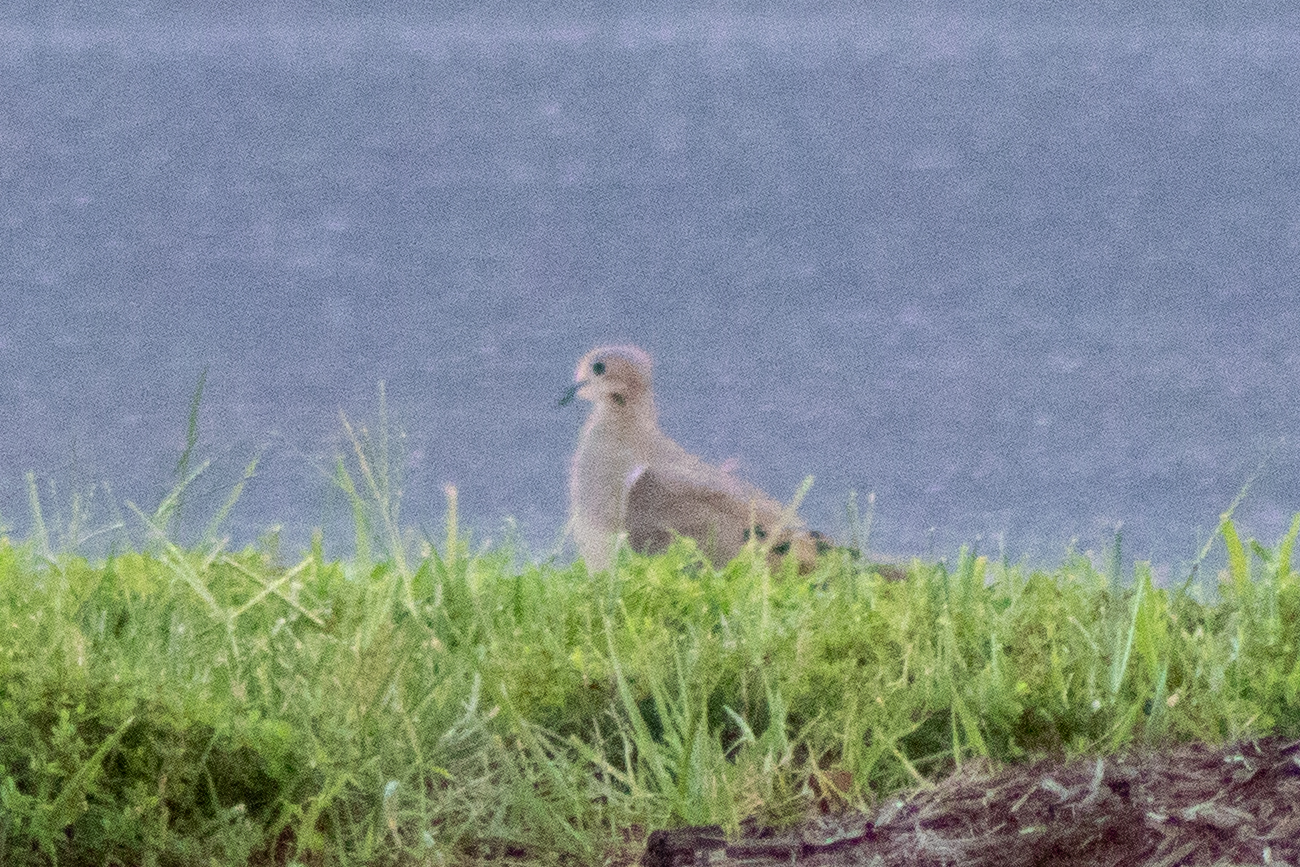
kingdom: Animalia
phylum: Chordata
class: Aves
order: Columbiformes
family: Columbidae
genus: Zenaida
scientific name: Zenaida macroura
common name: Mourning dove
